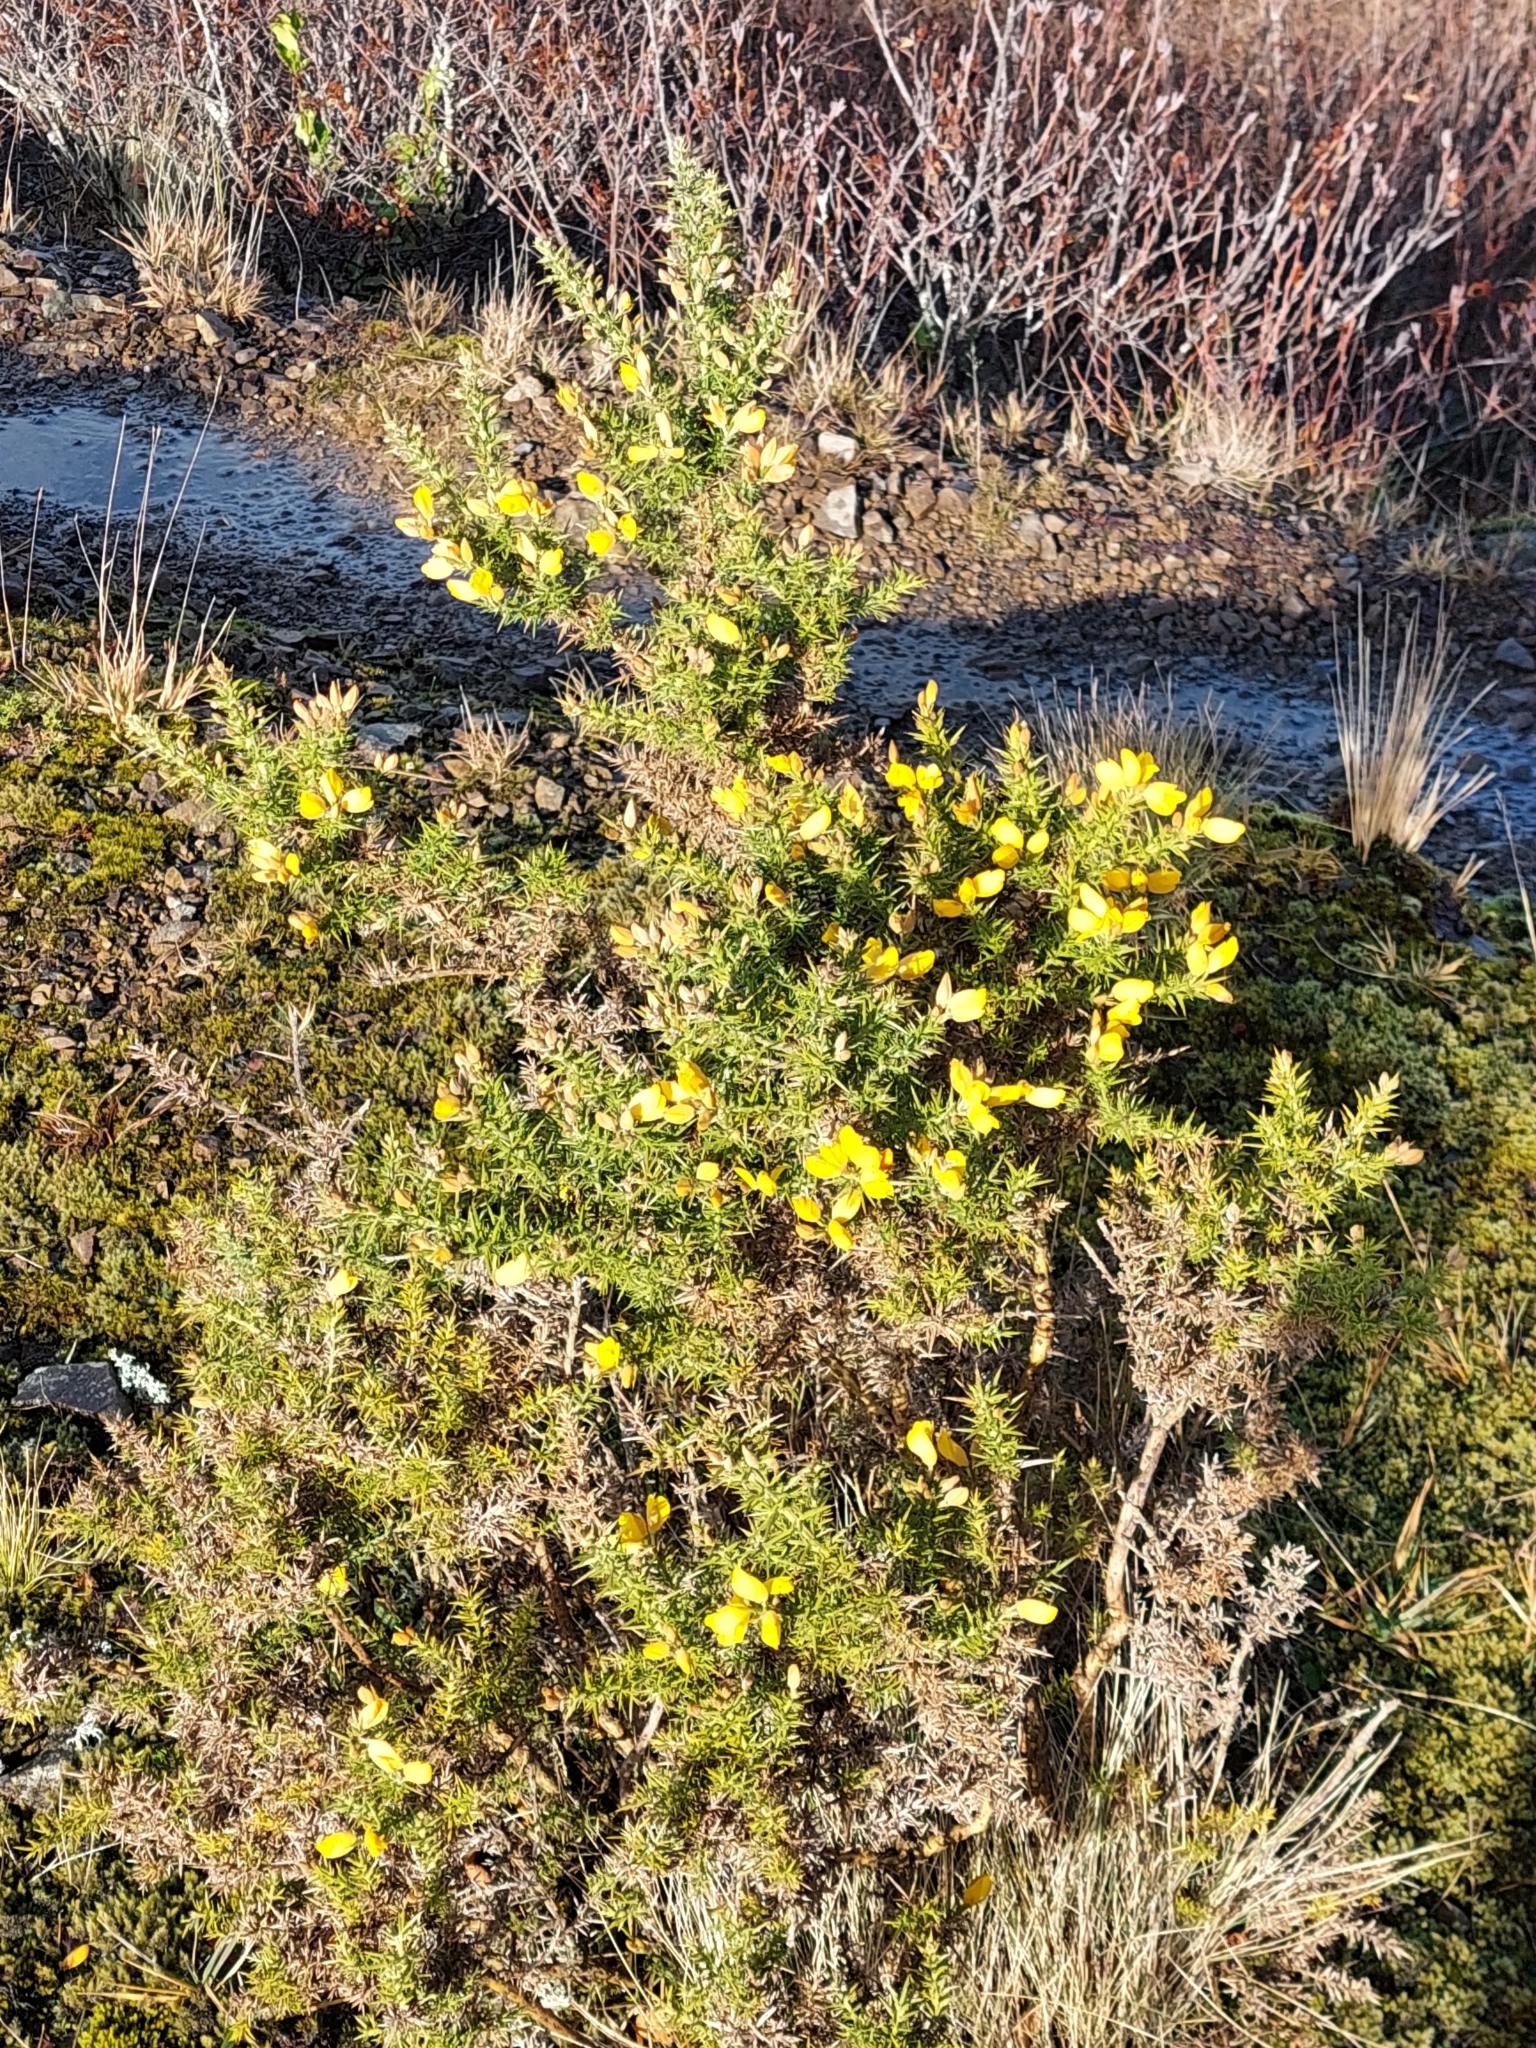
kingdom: Plantae
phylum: Tracheophyta
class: Magnoliopsida
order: Fabales
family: Fabaceae
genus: Ulex
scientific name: Ulex europaeus
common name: Common gorse
